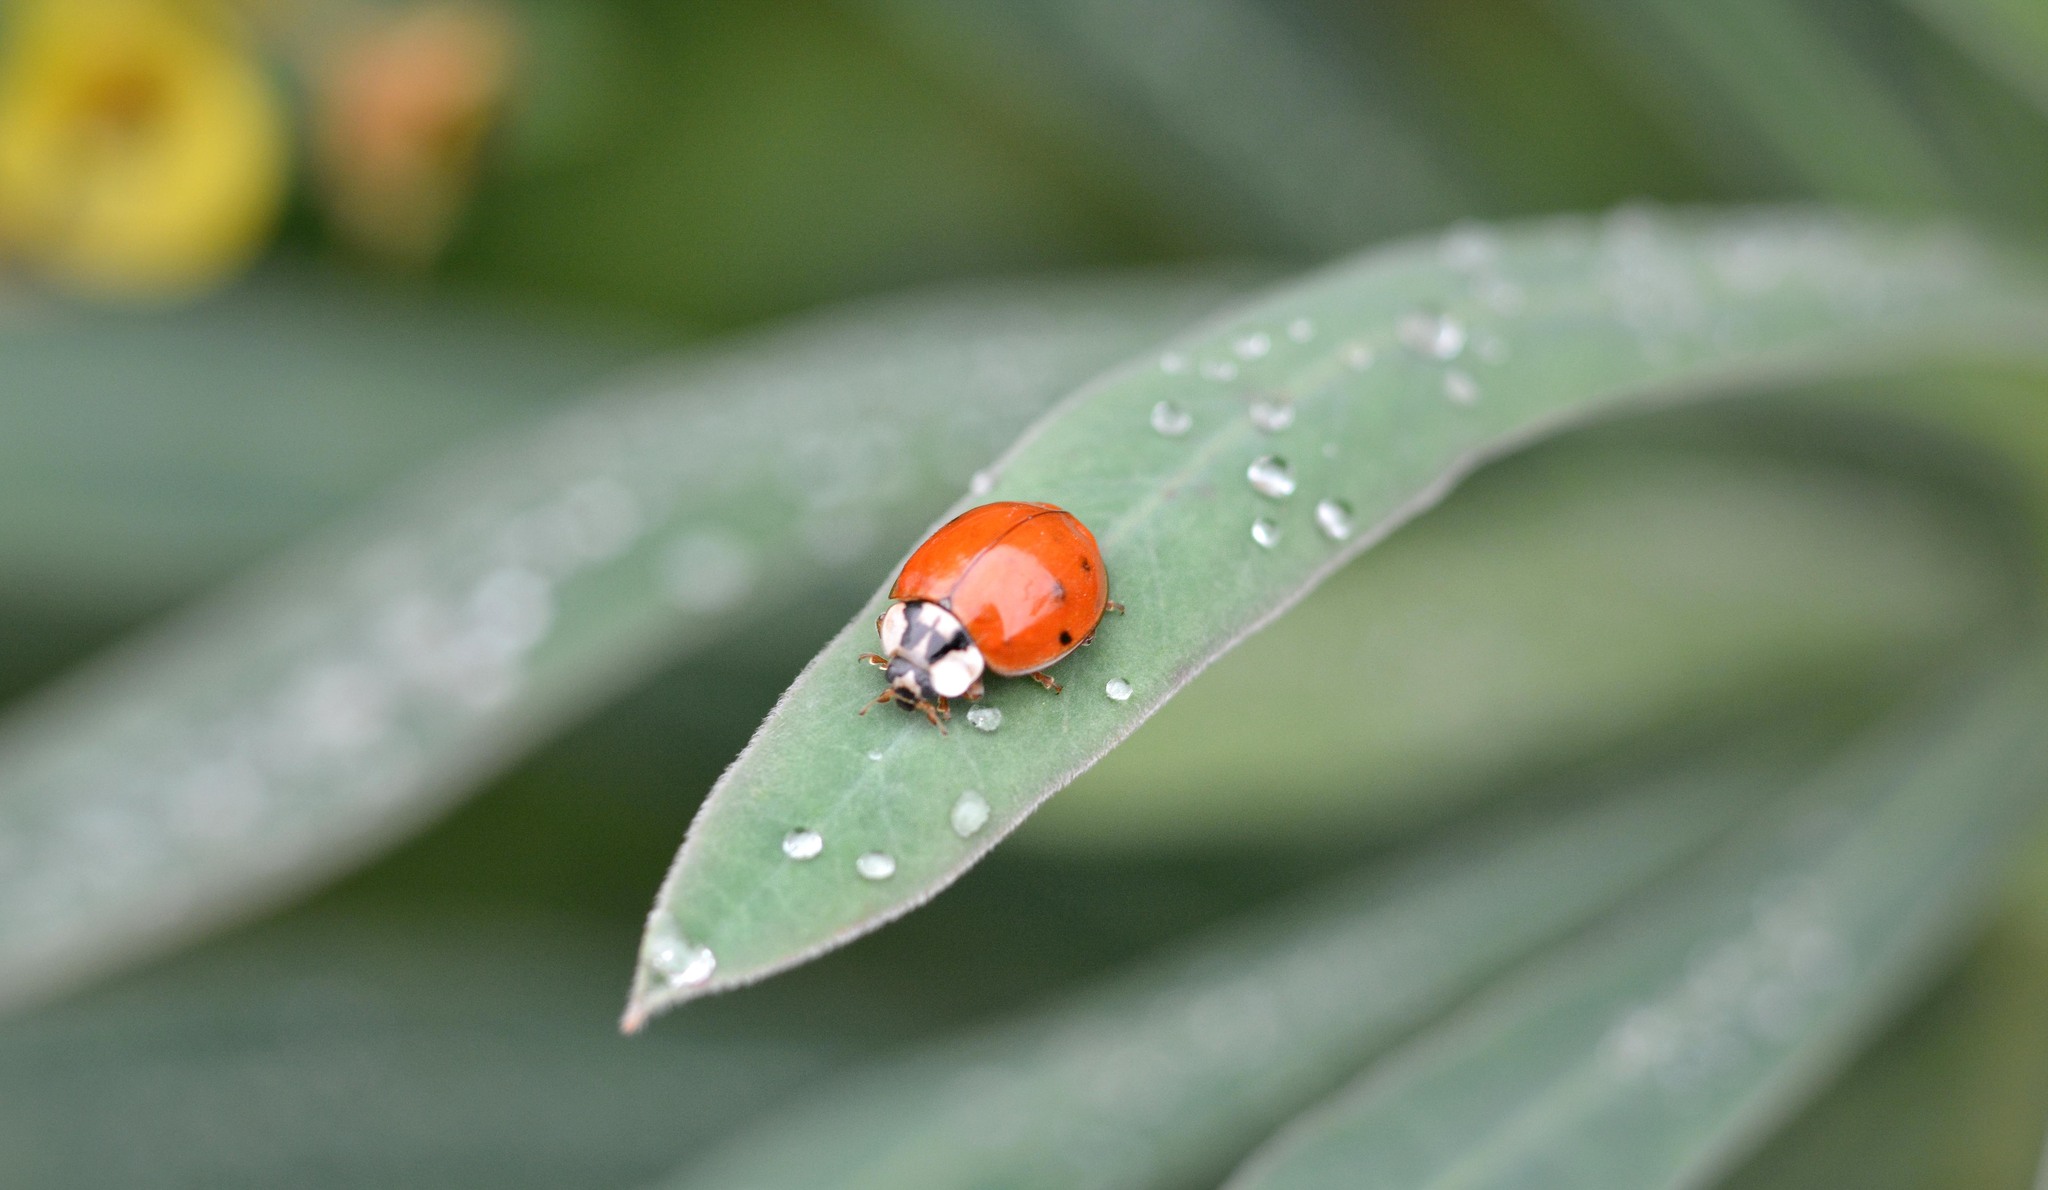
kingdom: Animalia
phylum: Arthropoda
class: Insecta
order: Coleoptera
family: Coccinellidae
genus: Harmonia
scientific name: Harmonia axyridis
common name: Harlequin ladybird
